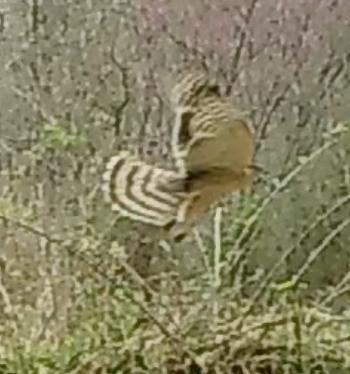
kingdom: Animalia
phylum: Chordata
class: Aves
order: Accipitriformes
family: Accipitridae
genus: Accipiter
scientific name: Accipiter cooperii
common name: Cooper's hawk
